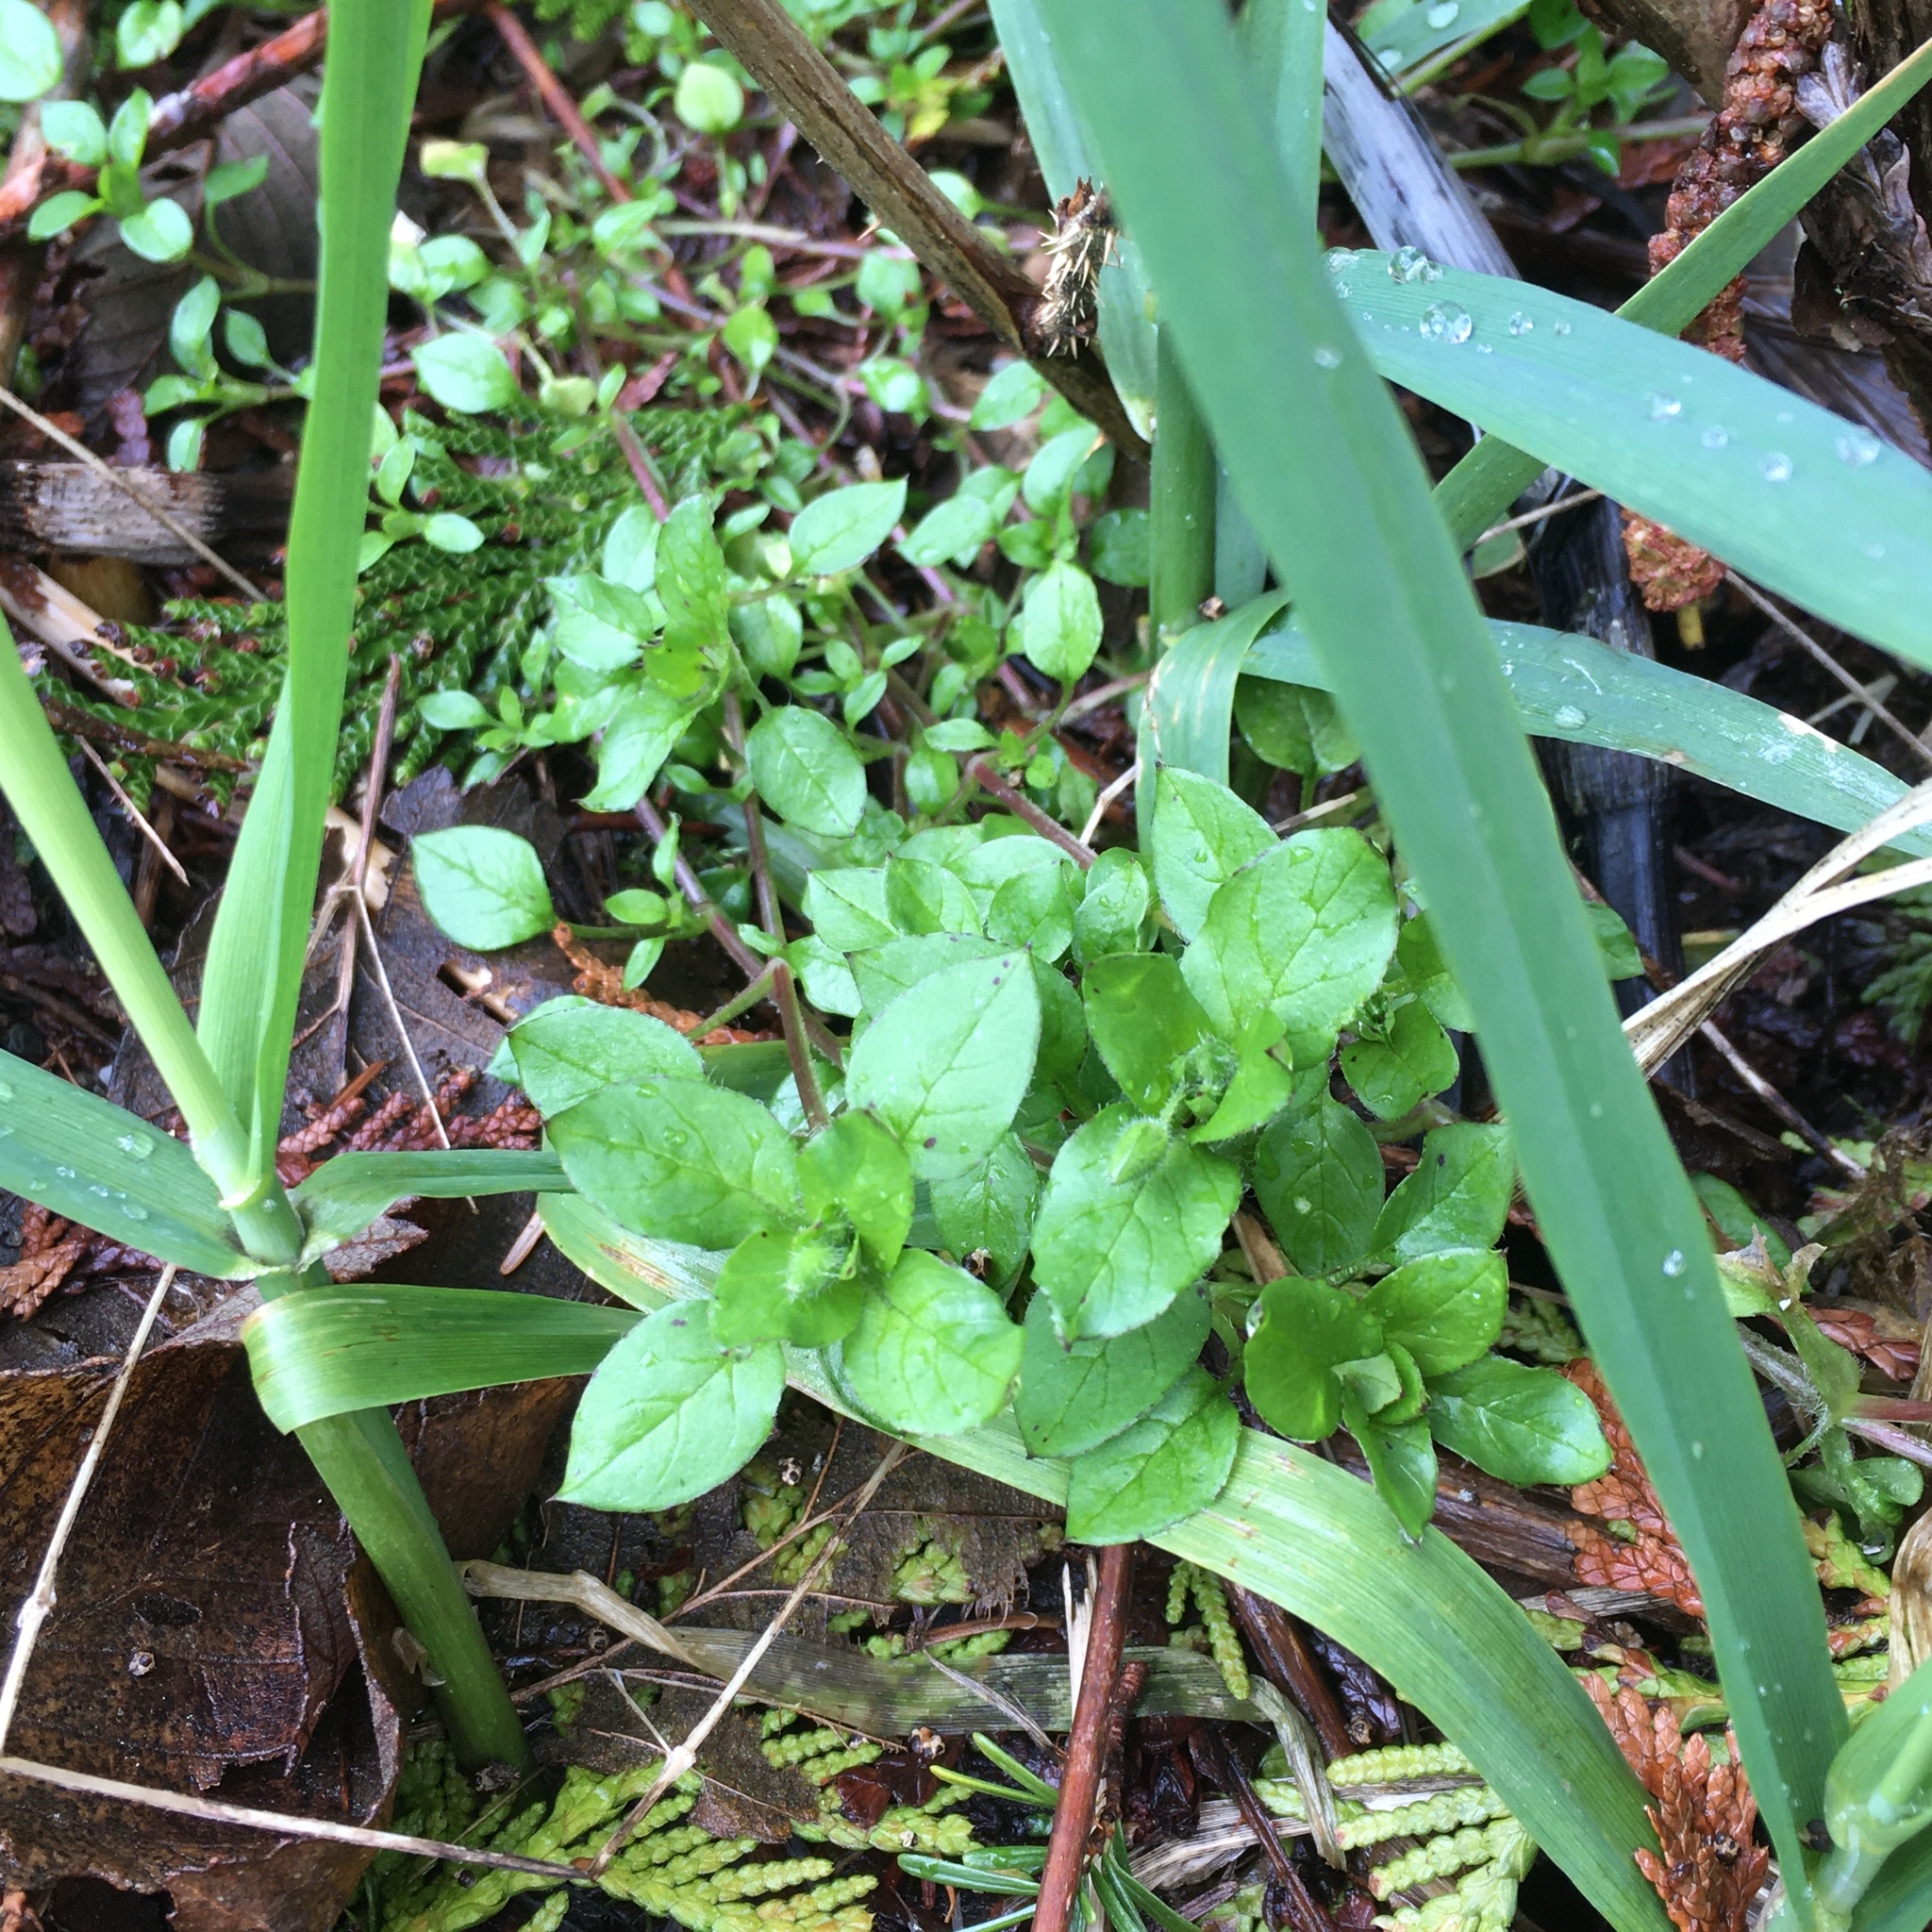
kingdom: Plantae
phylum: Tracheophyta
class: Magnoliopsida
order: Caryophyllales
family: Caryophyllaceae
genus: Stellaria
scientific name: Stellaria media
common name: Common chickweed
